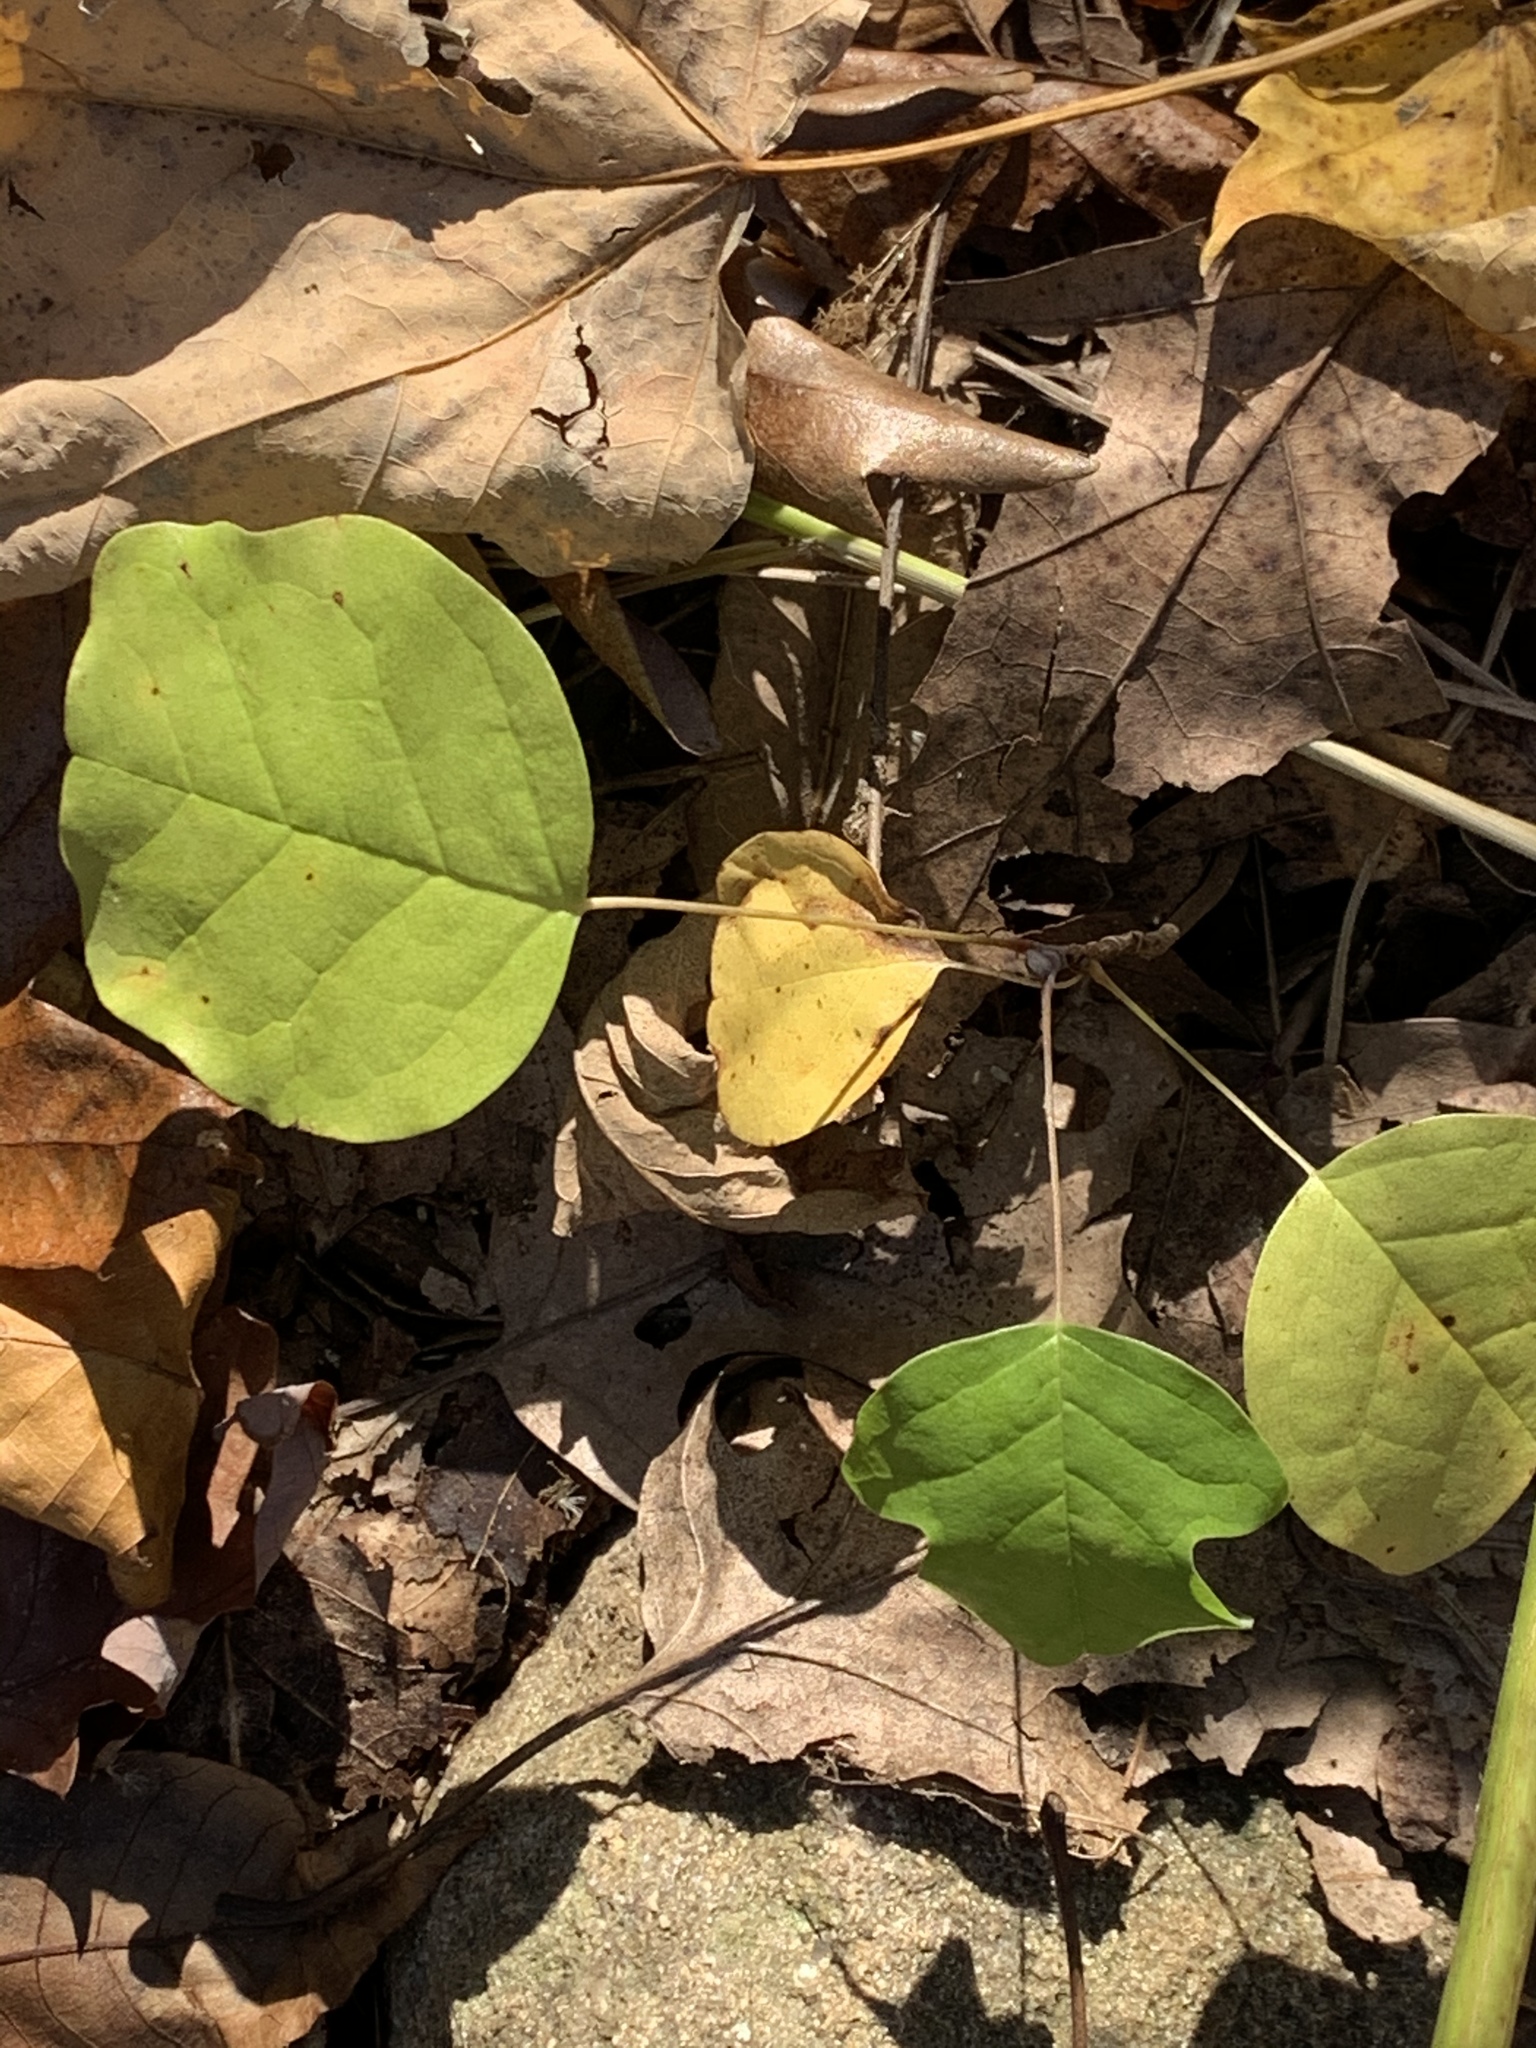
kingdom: Plantae
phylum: Tracheophyta
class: Magnoliopsida
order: Magnoliales
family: Magnoliaceae
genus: Liriodendron
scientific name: Liriodendron tulipifera
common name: Tulip tree
